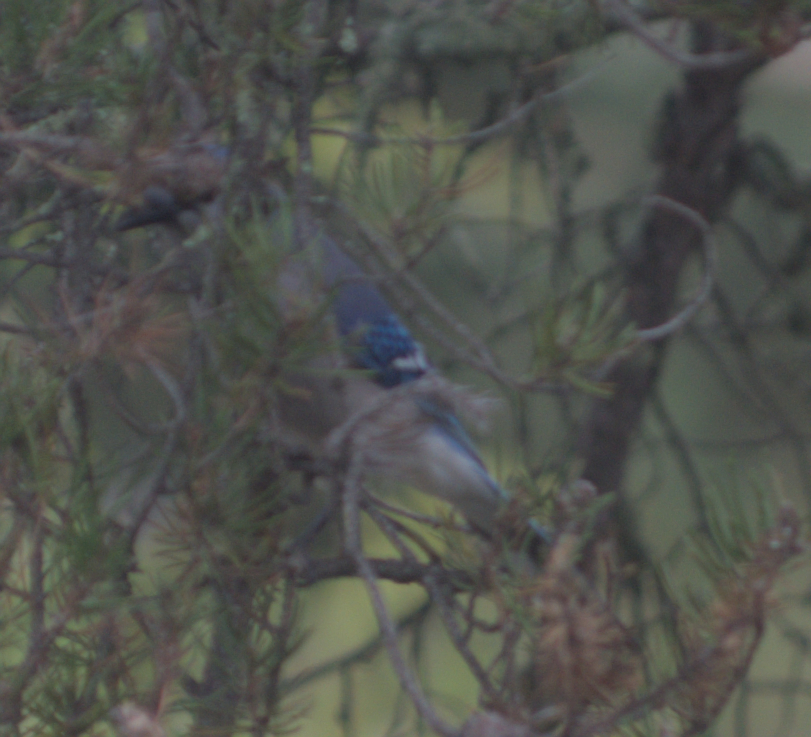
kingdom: Animalia
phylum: Chordata
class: Aves
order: Passeriformes
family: Corvidae
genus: Cyanocitta
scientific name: Cyanocitta cristata
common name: Blue jay
